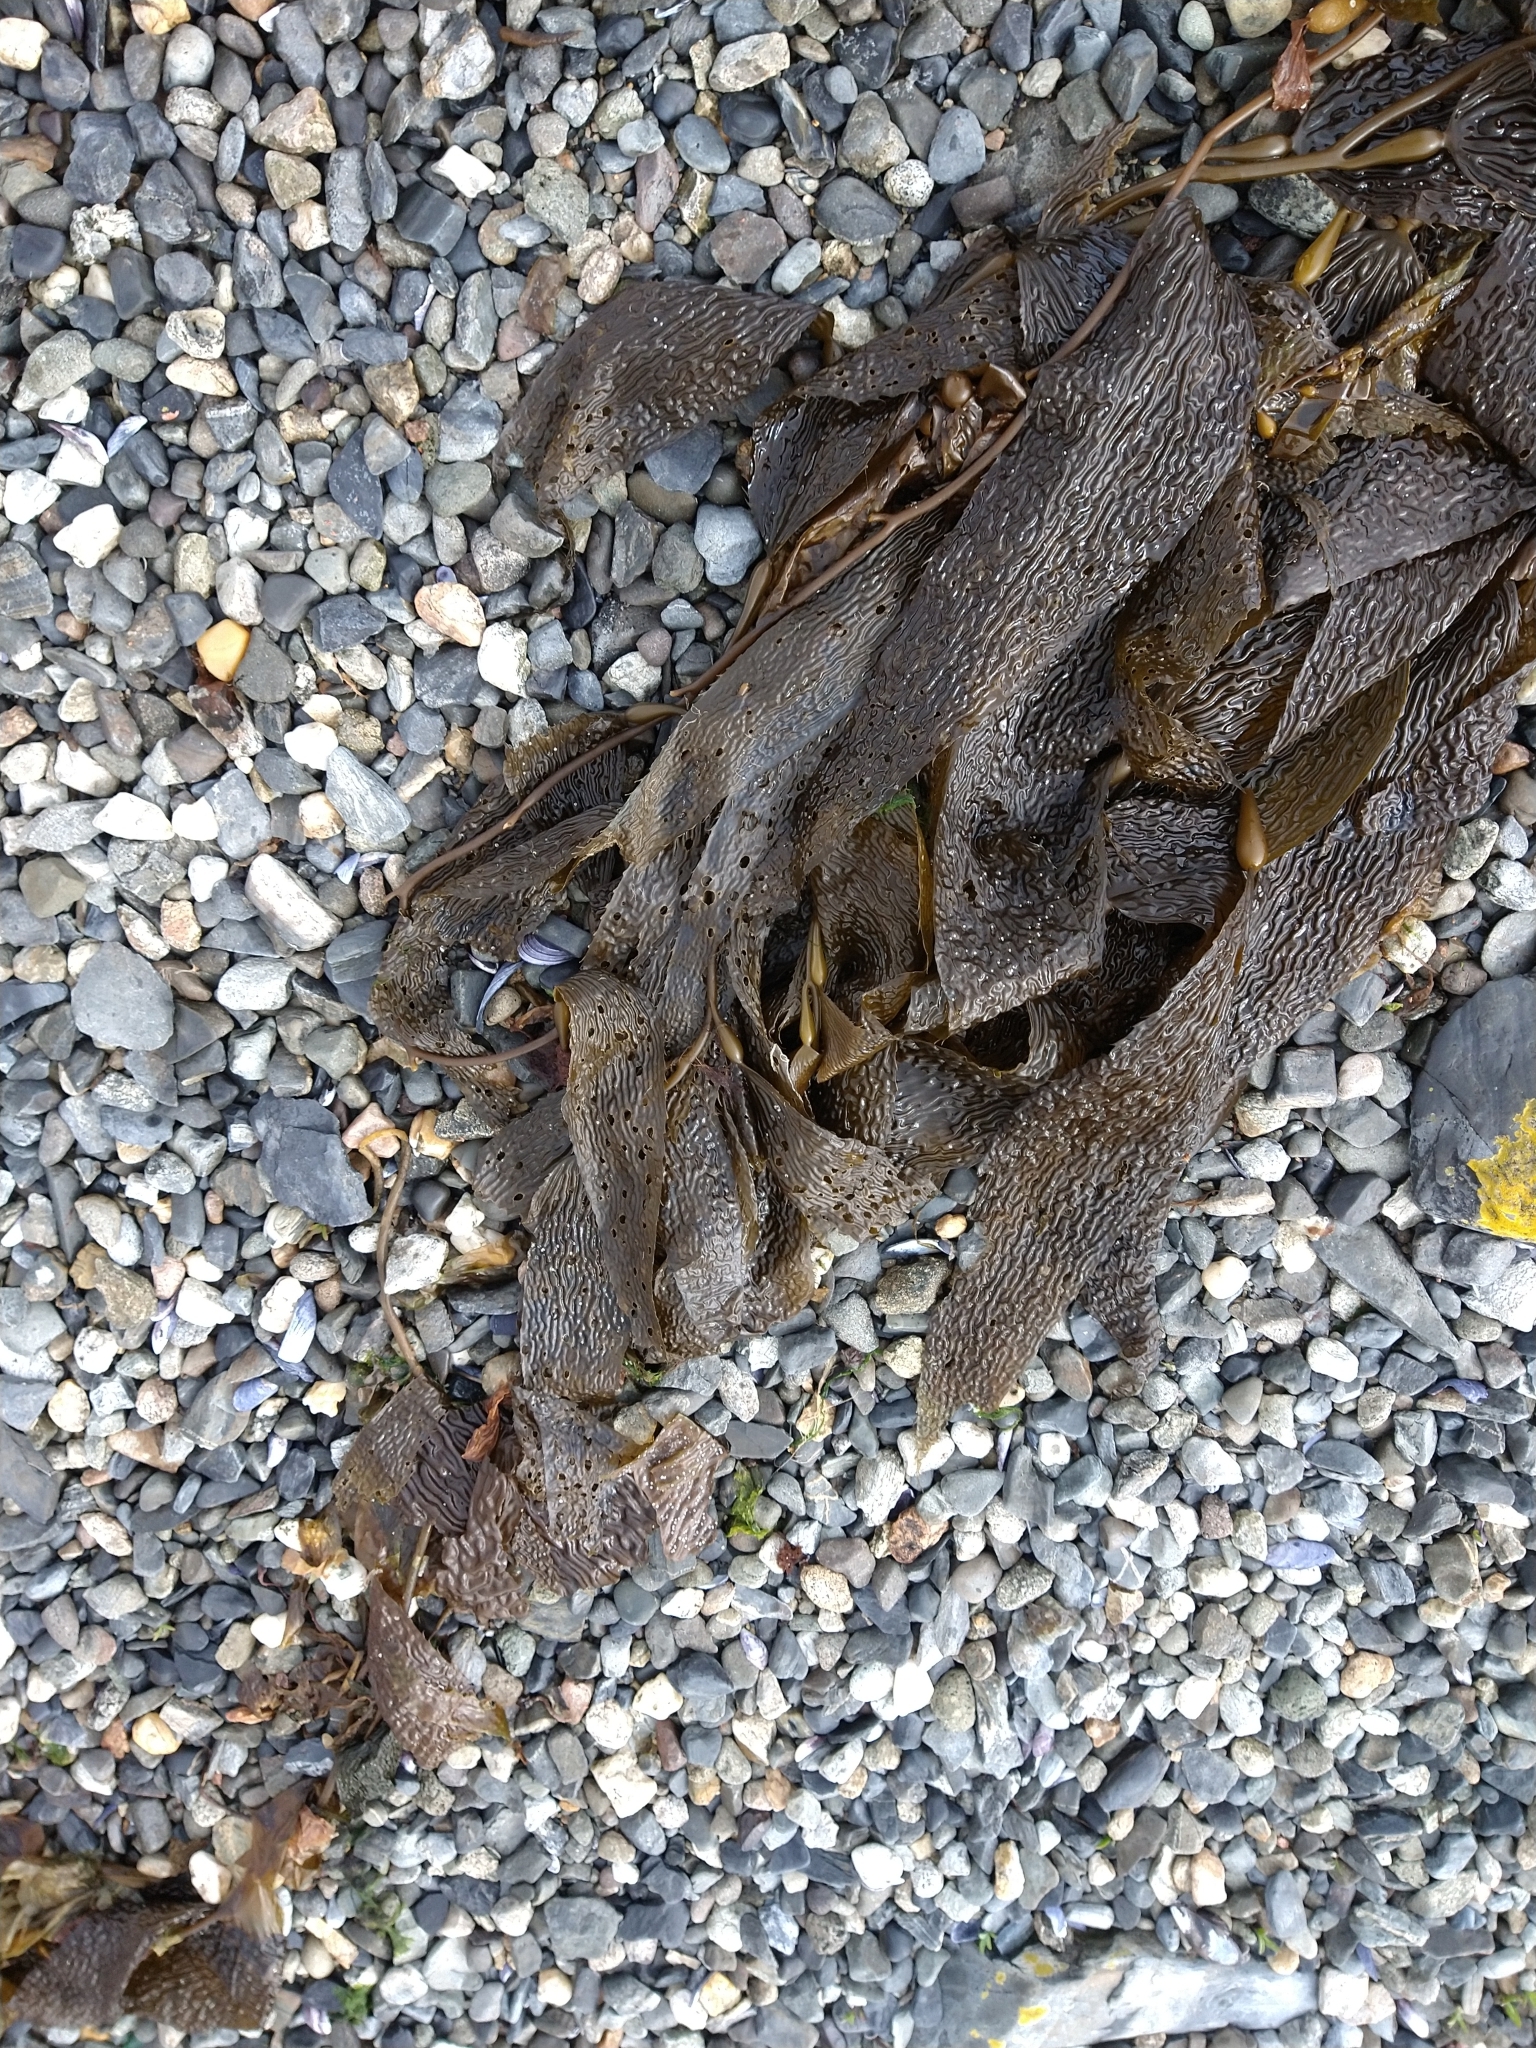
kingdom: Chromista
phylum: Ochrophyta
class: Phaeophyceae
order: Laminariales
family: Laminariaceae
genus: Macrocystis
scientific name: Macrocystis pyrifera
